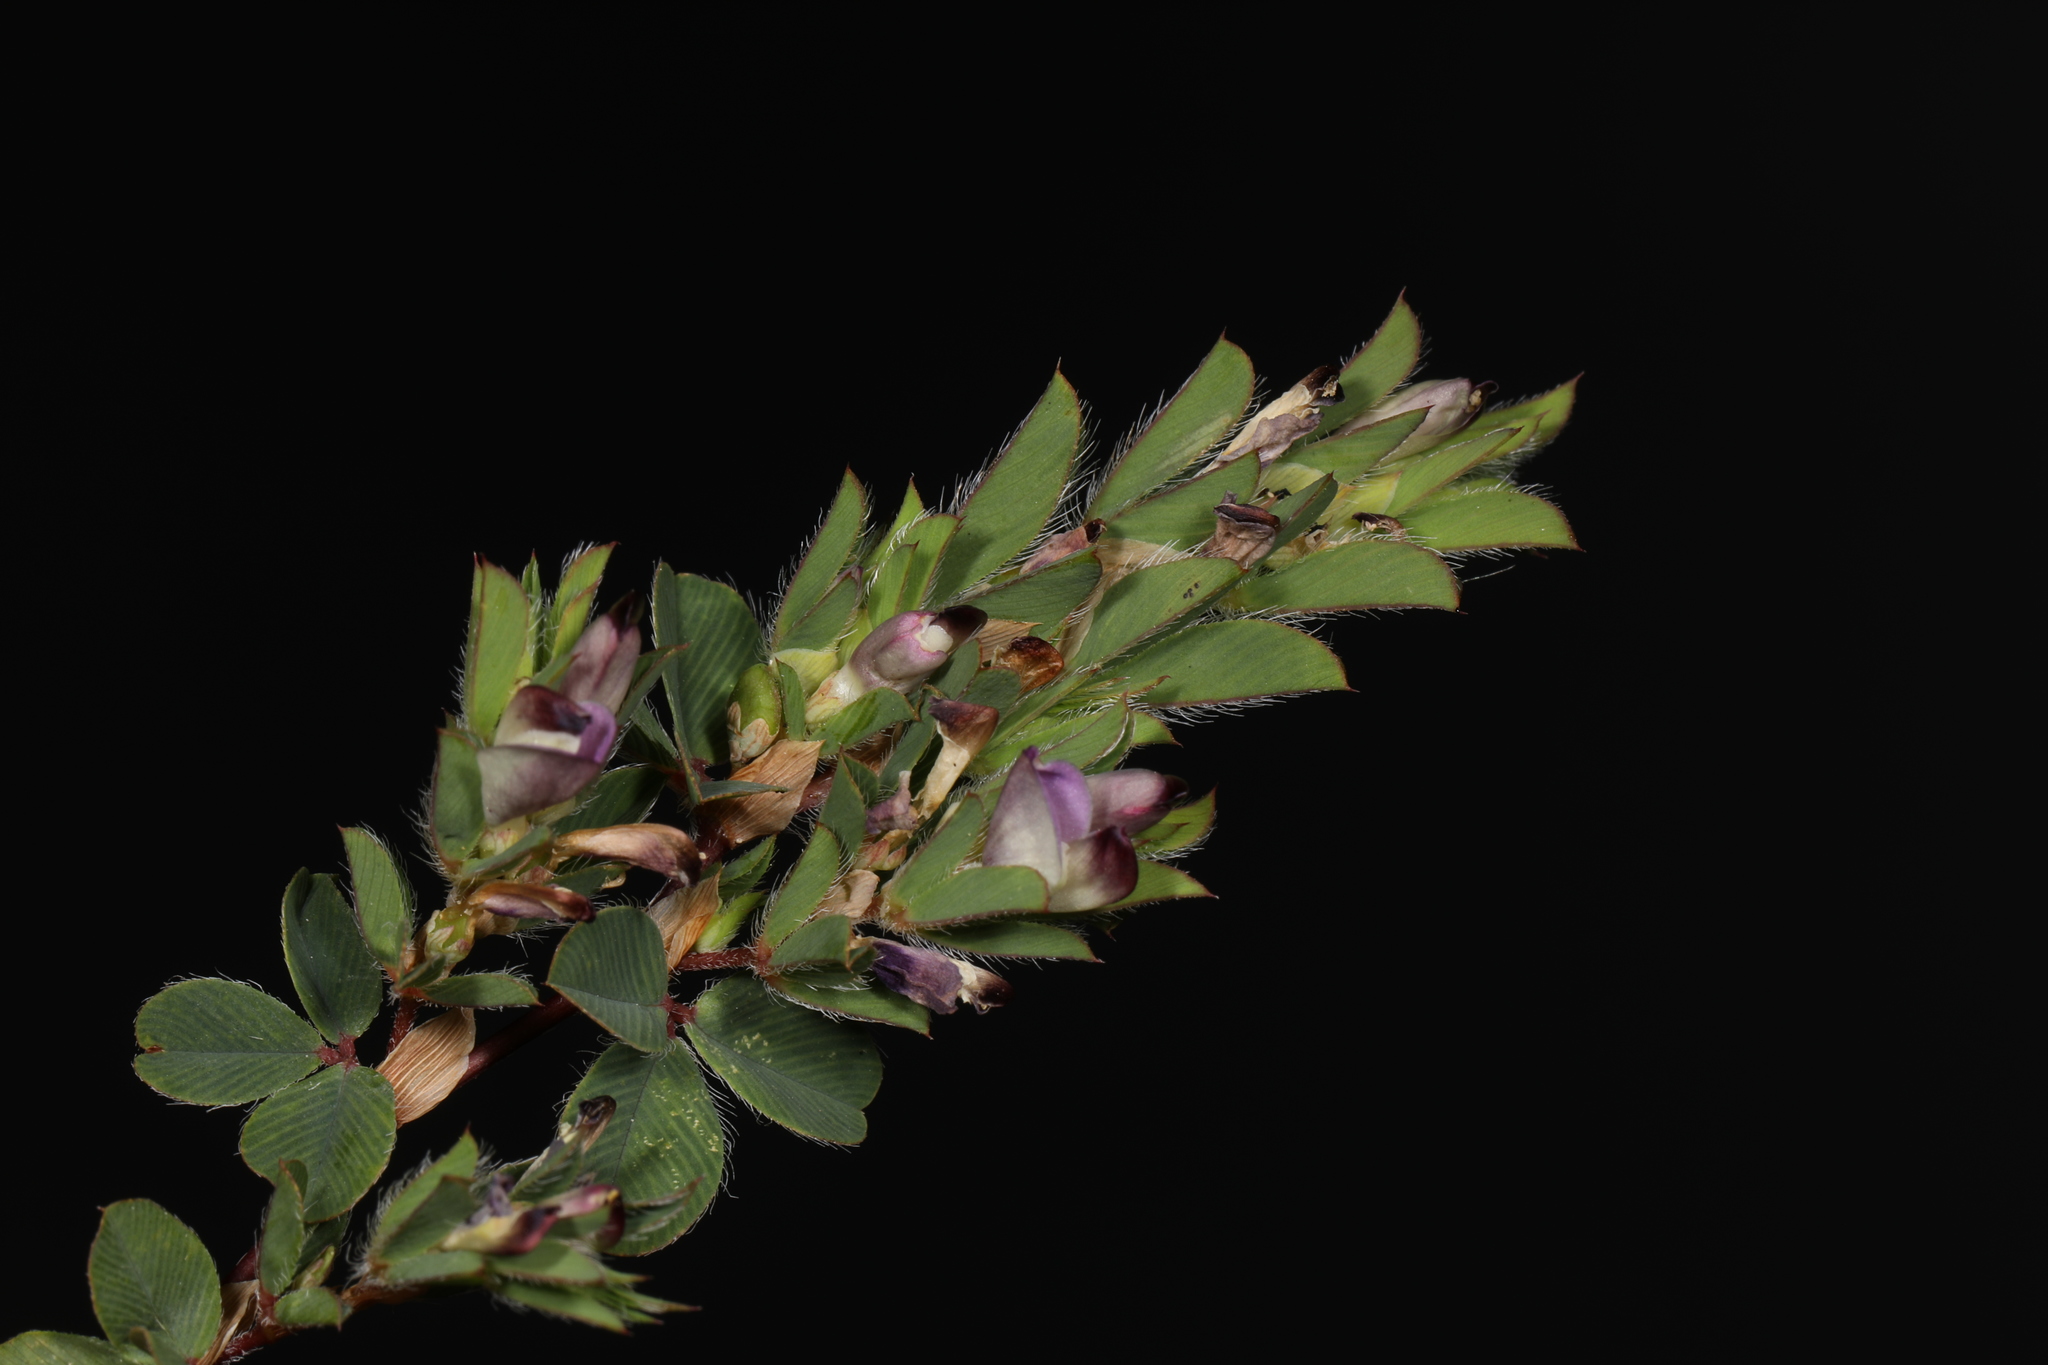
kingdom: Plantae
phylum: Tracheophyta
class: Magnoliopsida
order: Fabales
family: Fabaceae
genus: Kummerowia
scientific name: Kummerowia stipulacea
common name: Korean clover
